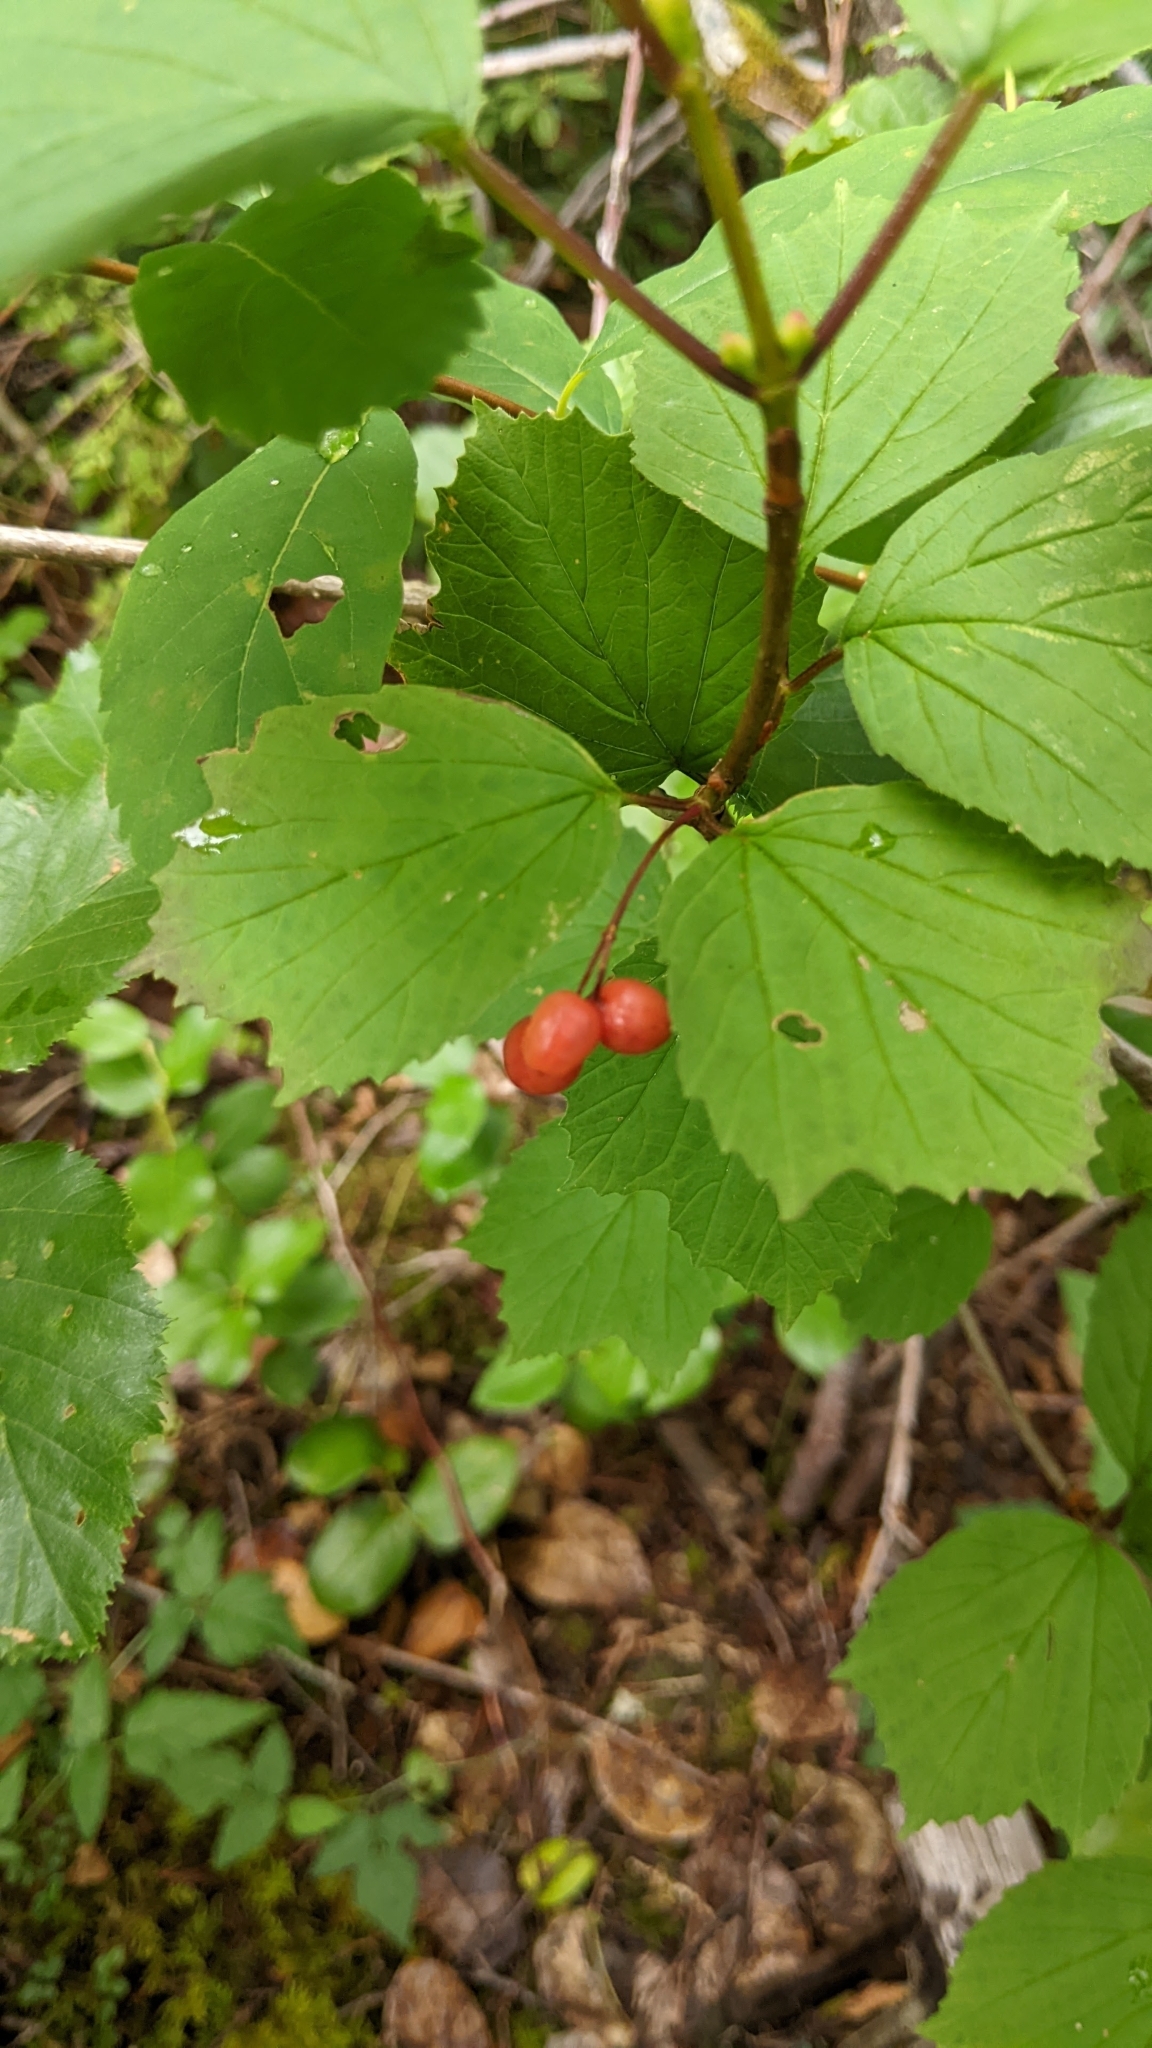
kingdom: Plantae
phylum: Tracheophyta
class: Magnoliopsida
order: Dipsacales
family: Viburnaceae
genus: Viburnum
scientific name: Viburnum edule
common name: Mooseberry
